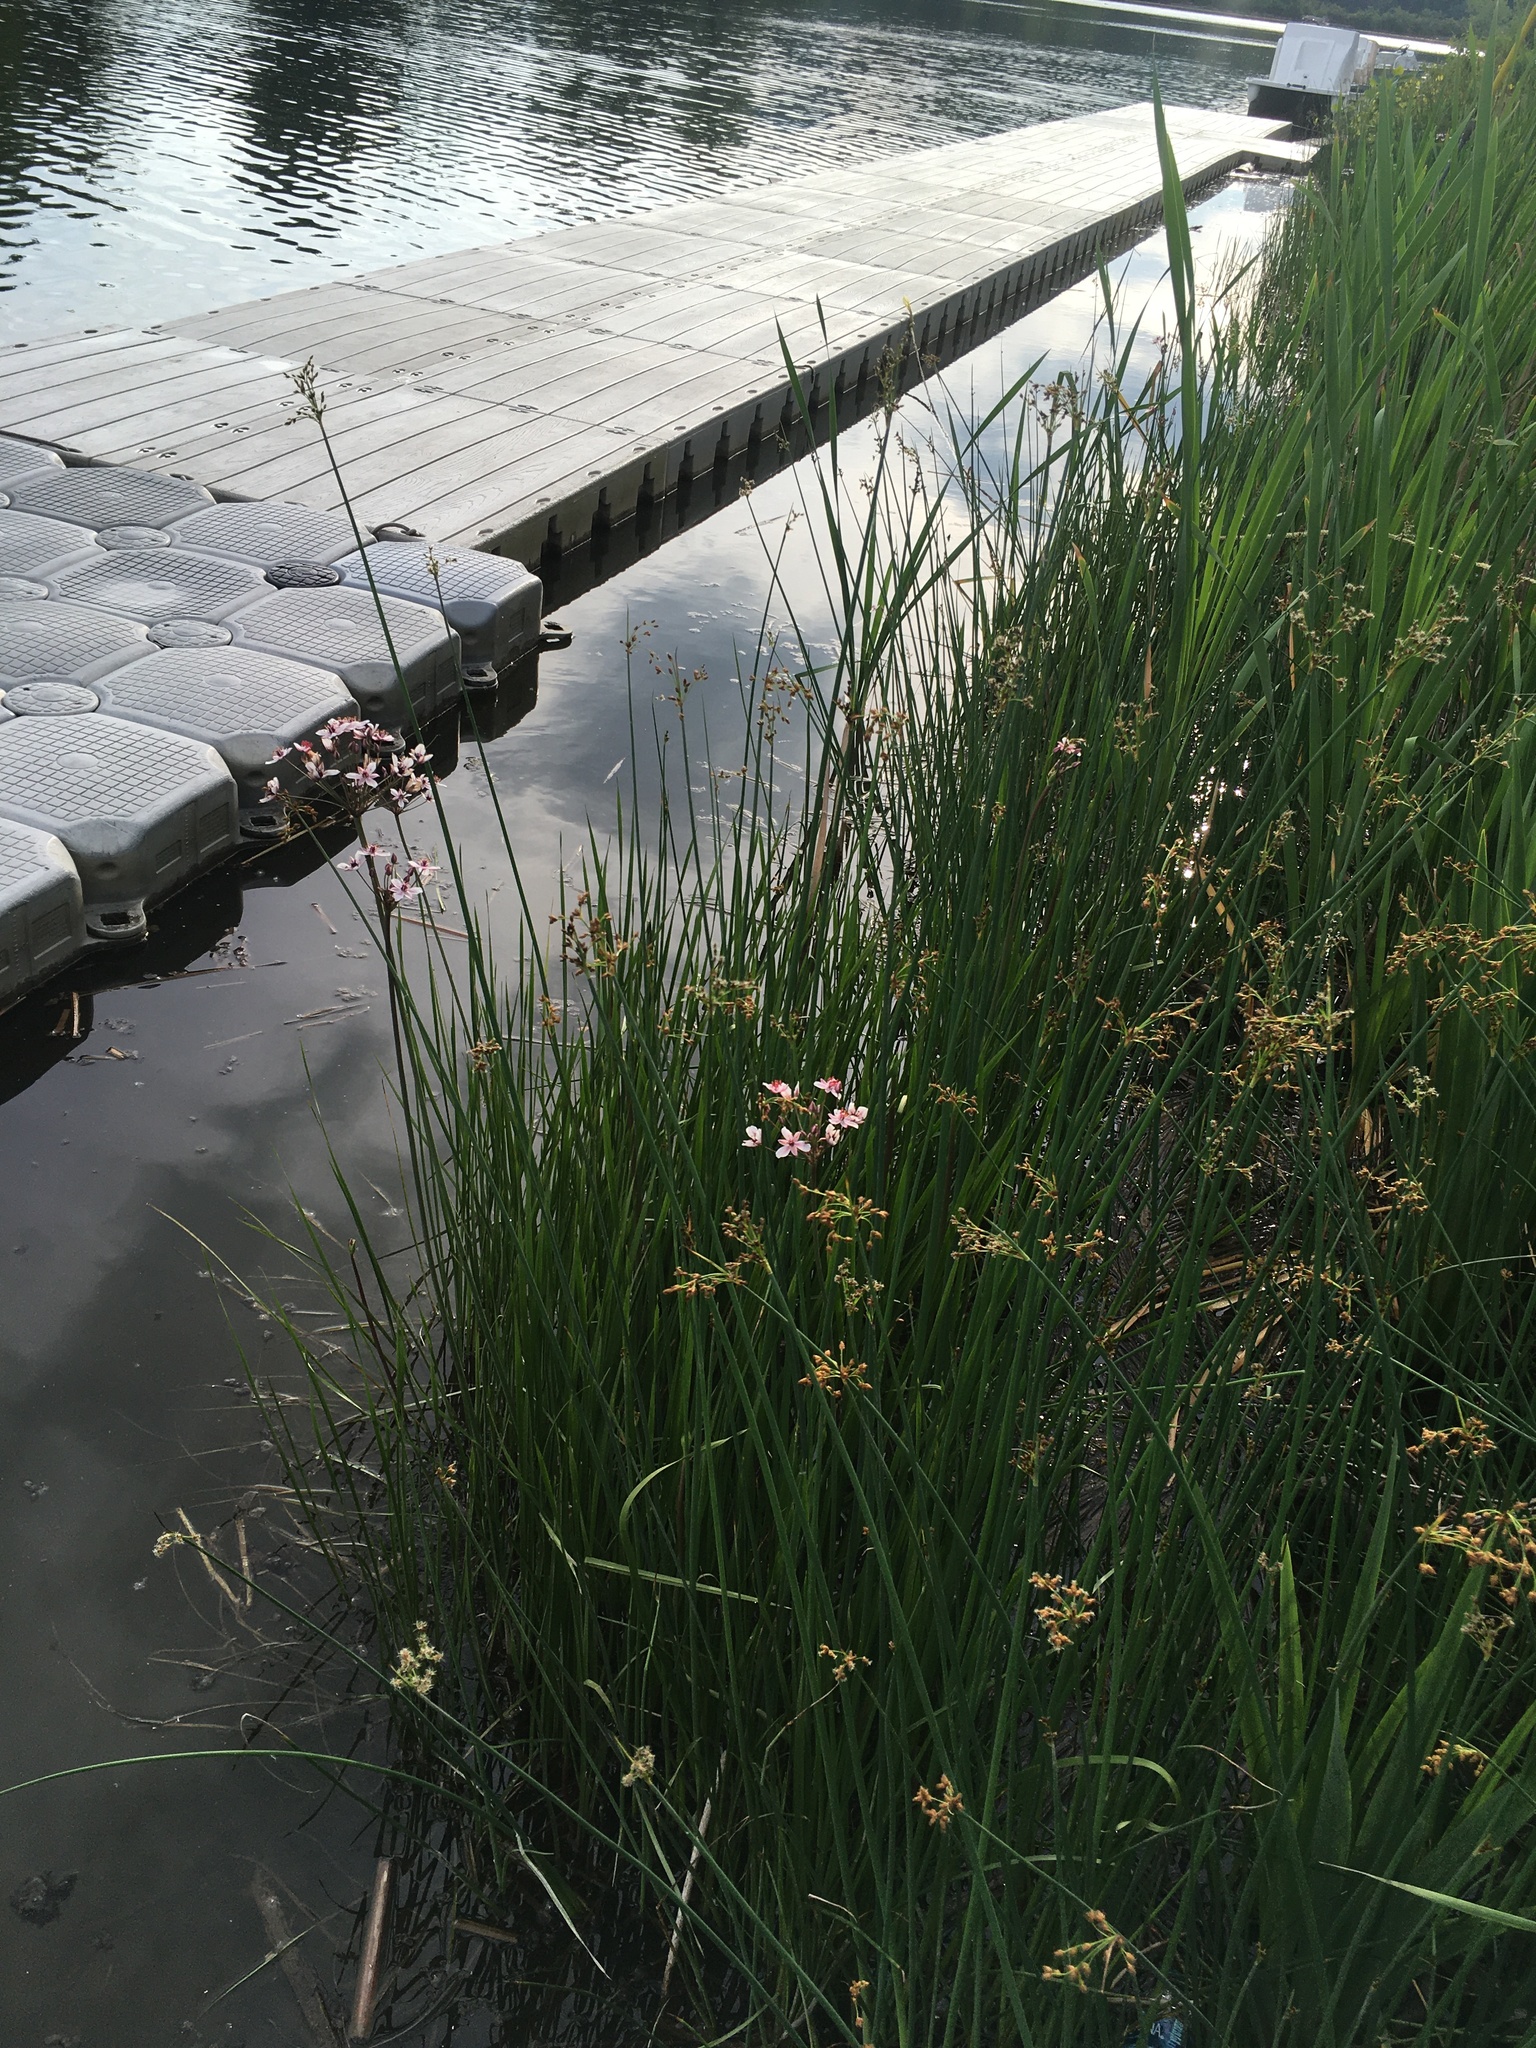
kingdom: Plantae
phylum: Tracheophyta
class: Liliopsida
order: Alismatales
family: Butomaceae
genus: Butomus
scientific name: Butomus umbellatus
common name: Flowering-rush
